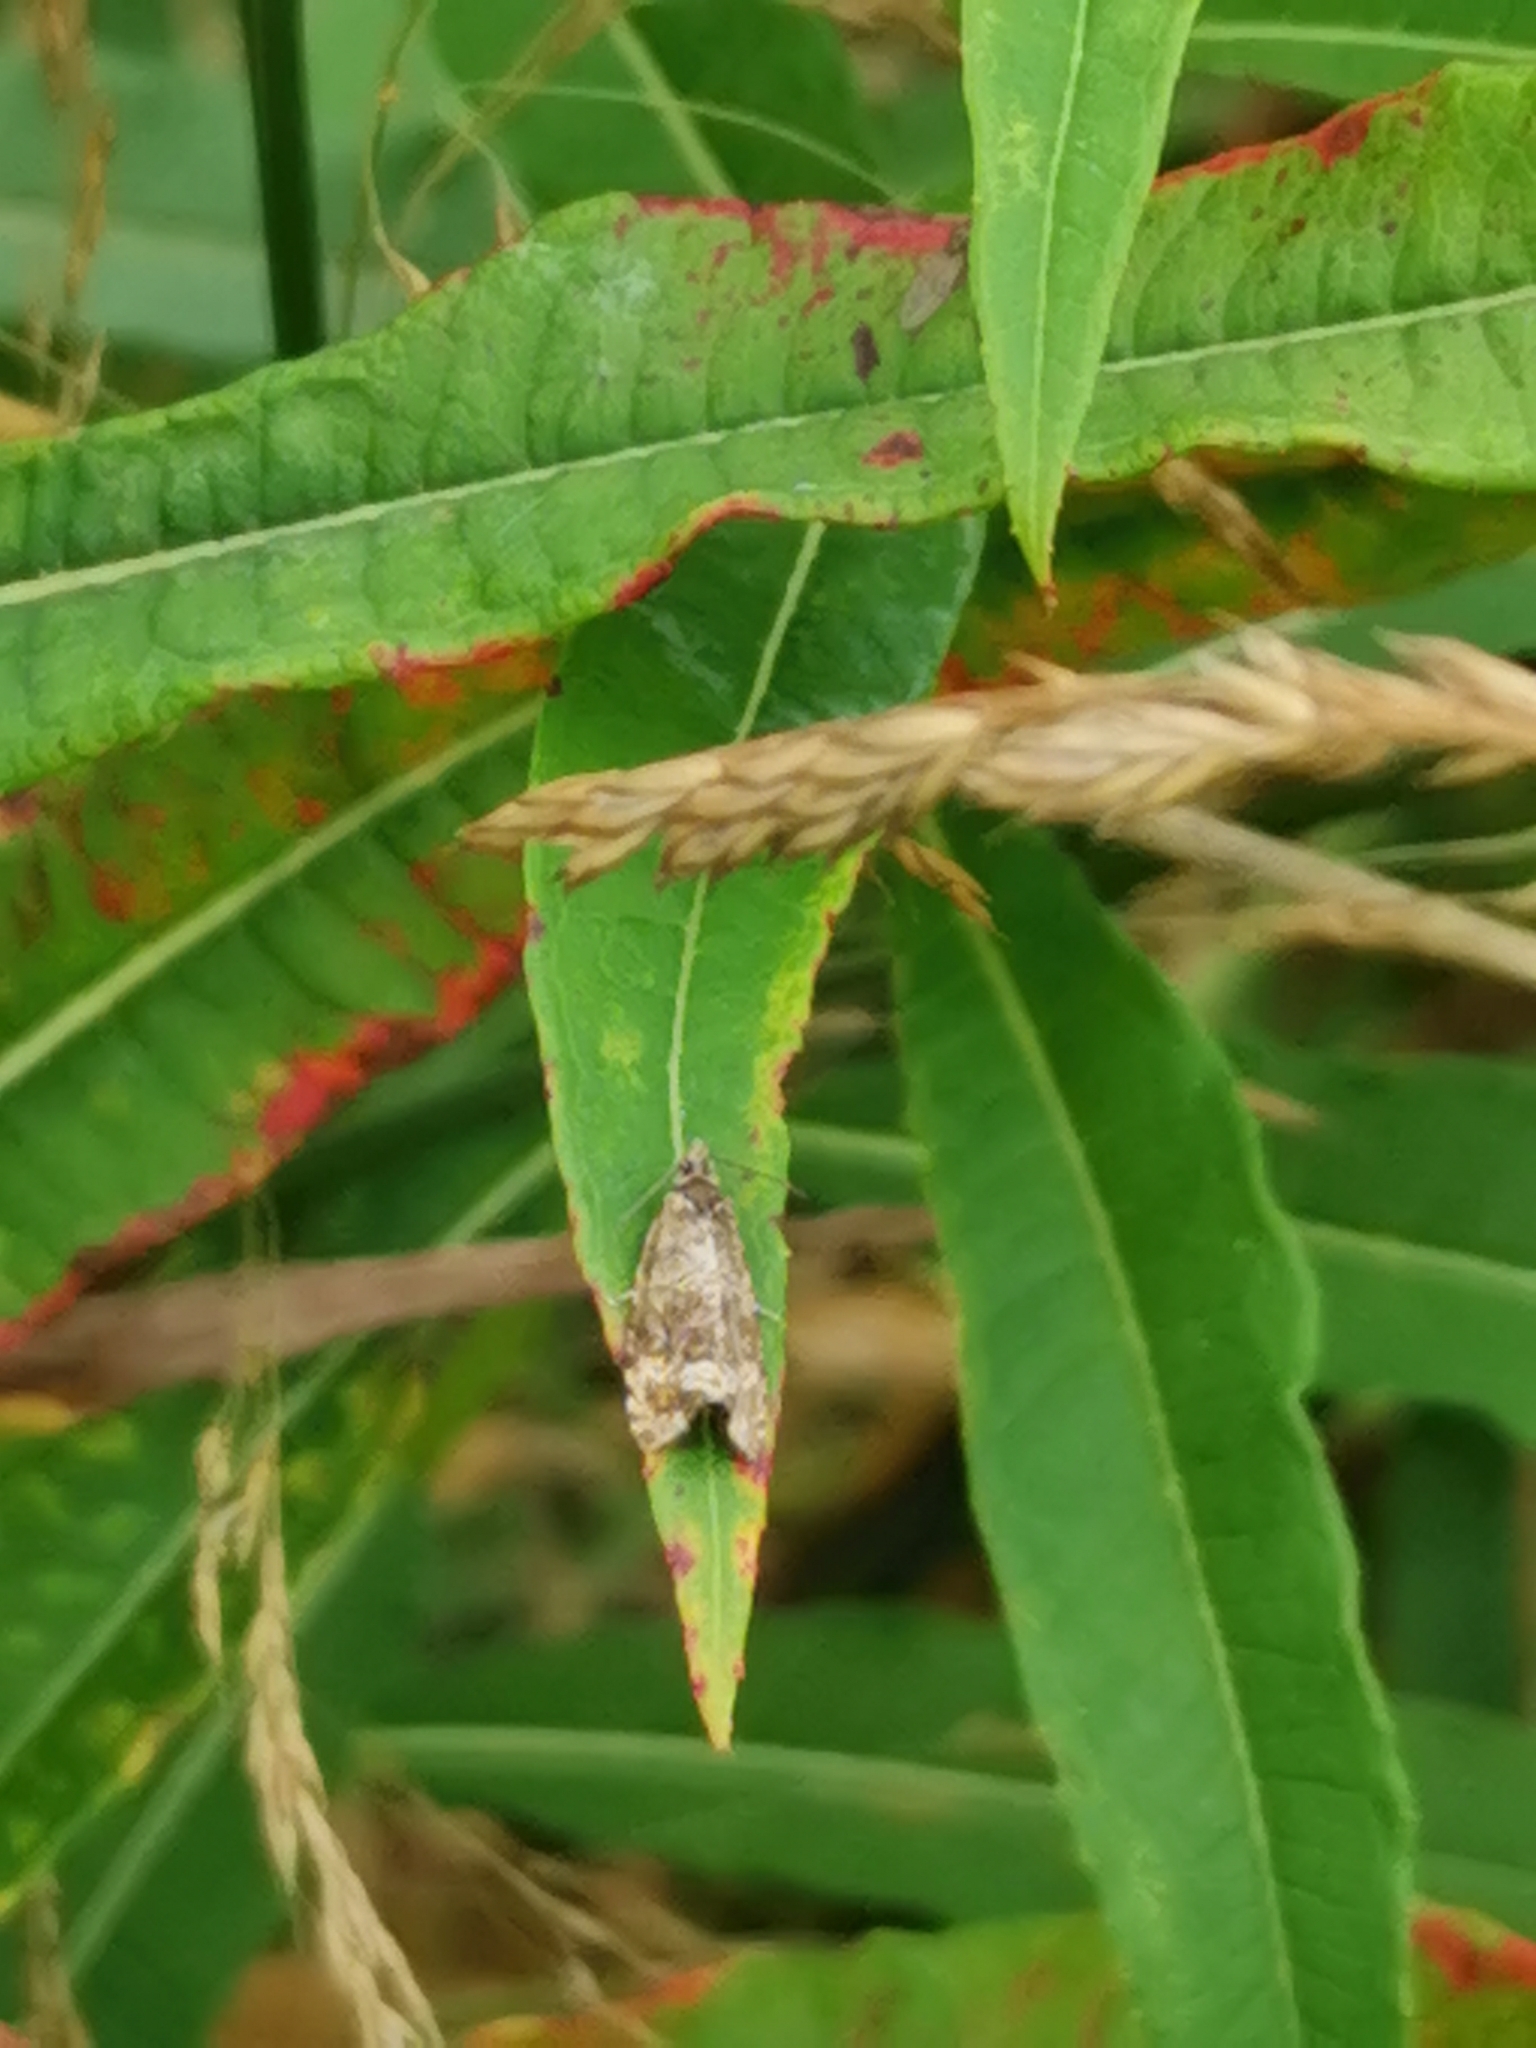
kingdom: Animalia
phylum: Arthropoda
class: Insecta
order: Lepidoptera
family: Tortricidae
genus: Syricoris
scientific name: Syricoris lacunana
